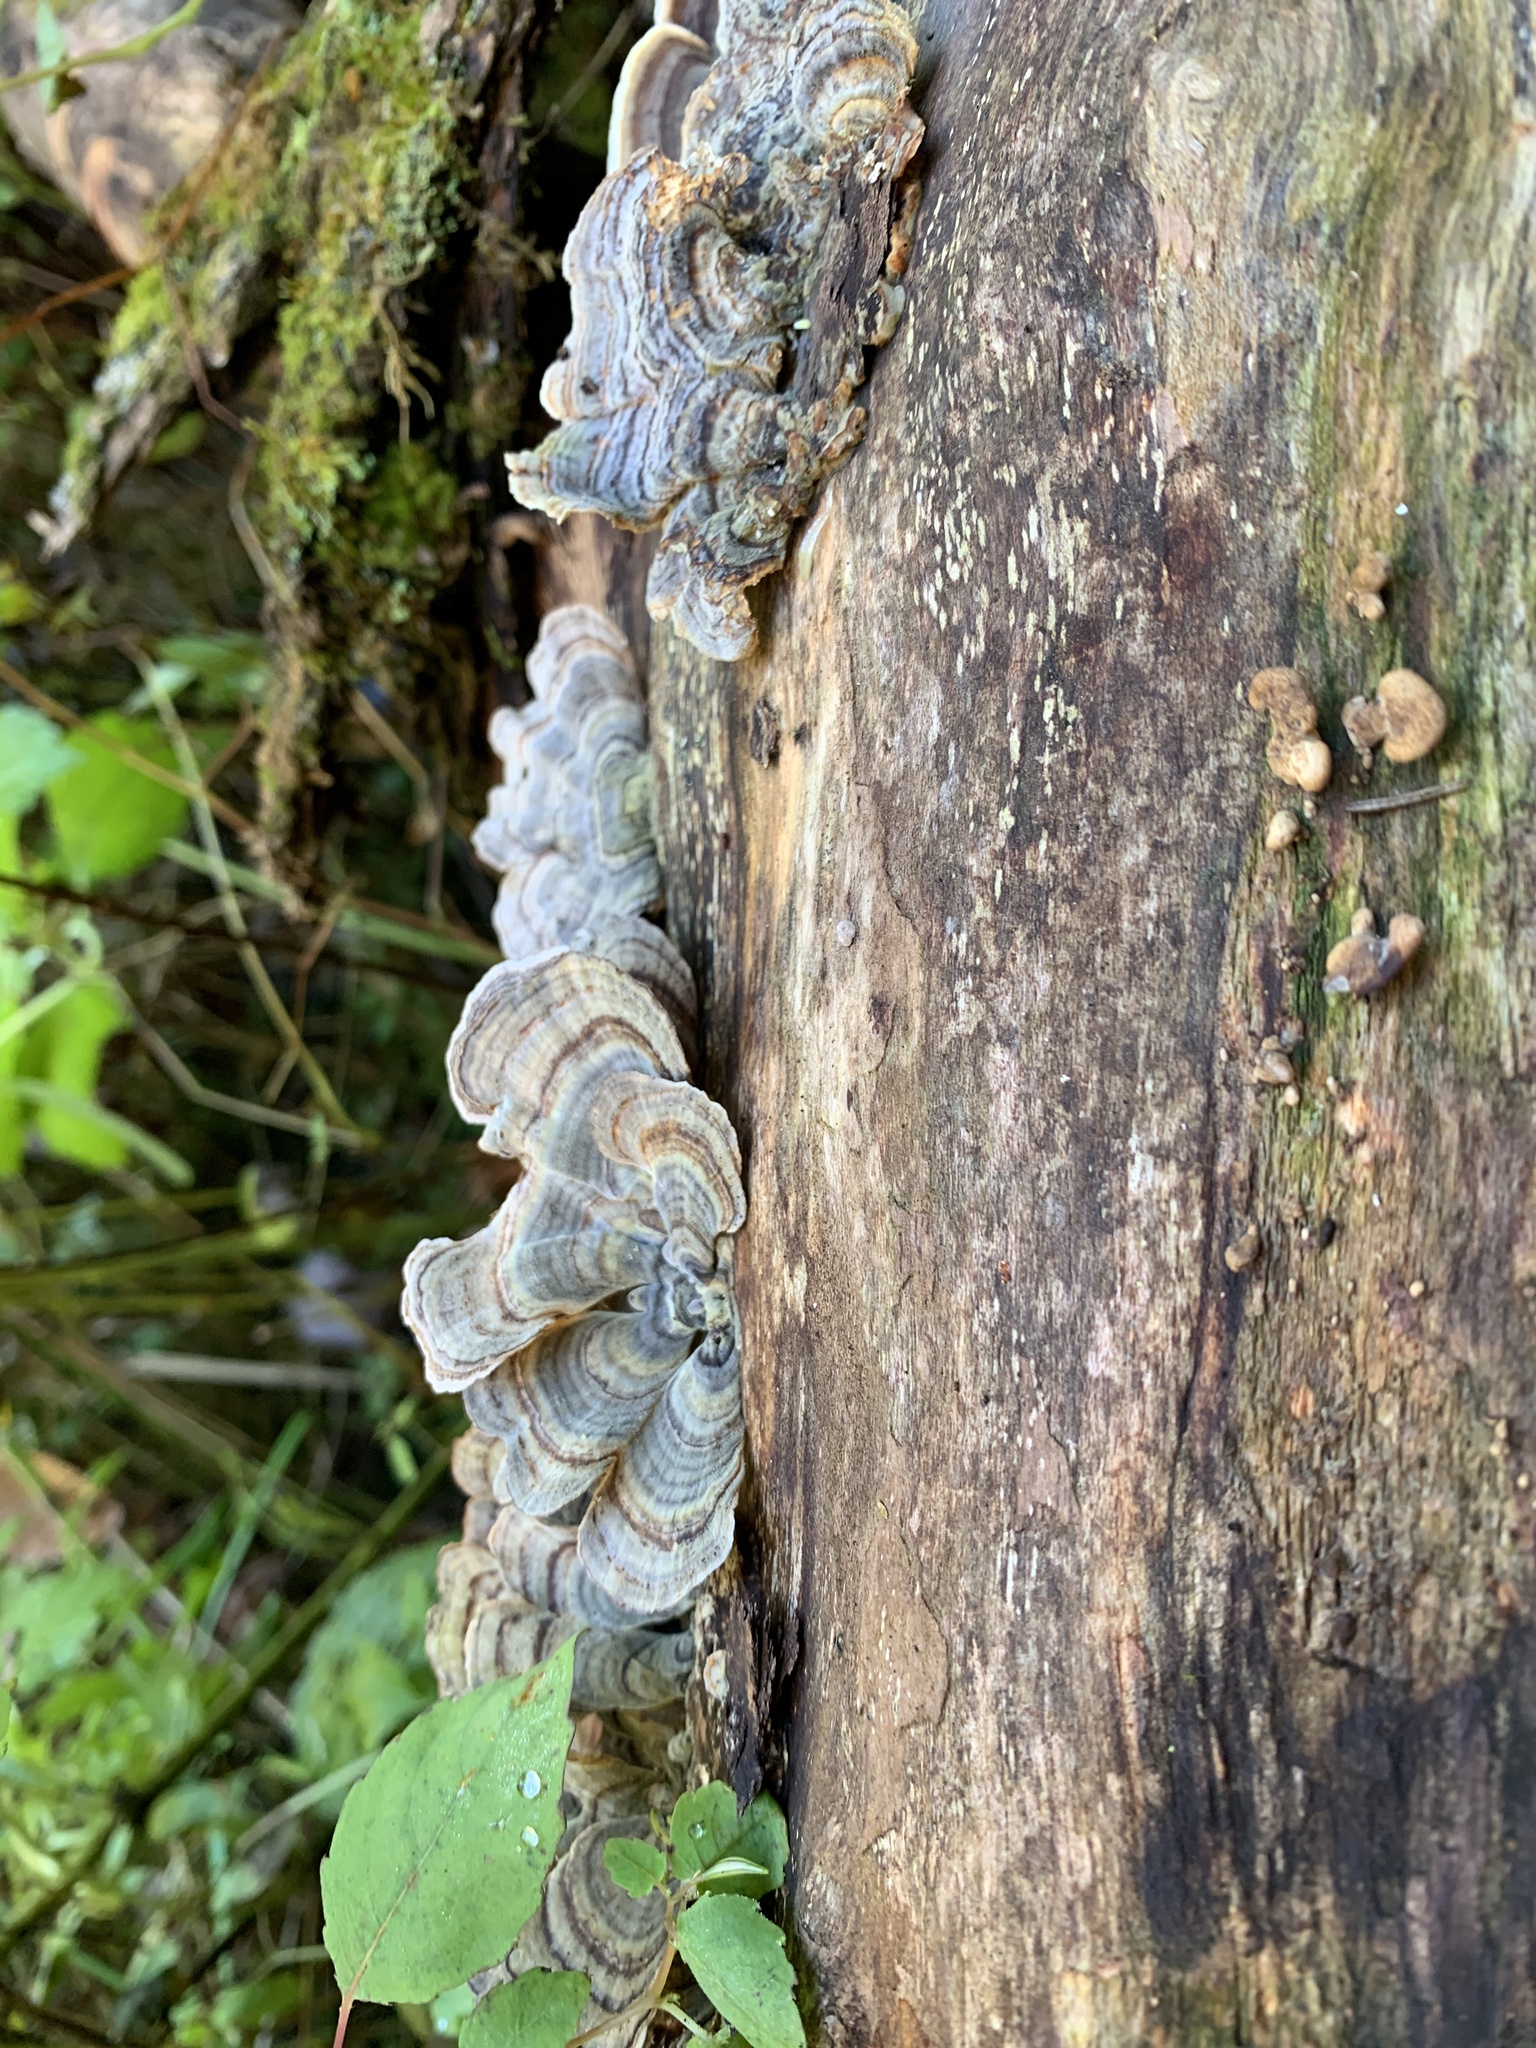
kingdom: Fungi
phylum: Basidiomycota
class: Agaricomycetes
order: Polyporales
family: Polyporaceae
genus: Trametes
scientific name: Trametes versicolor
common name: Turkeytail
